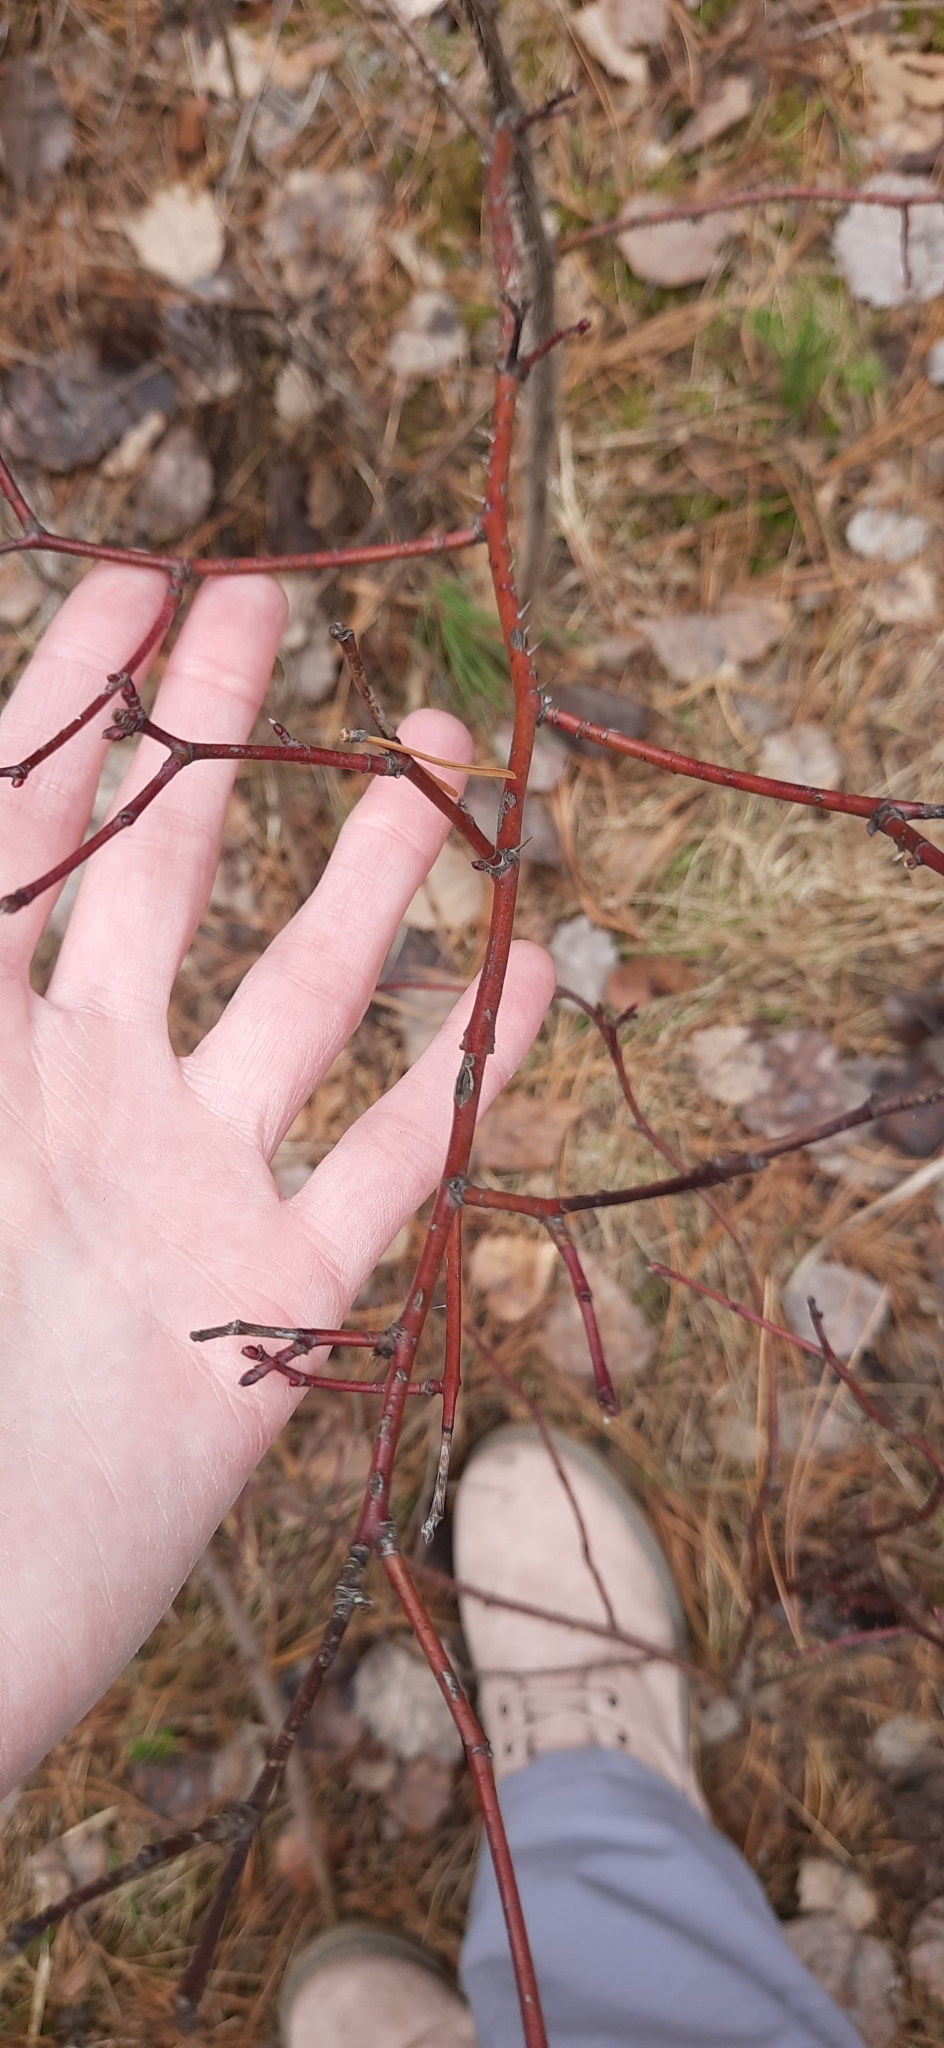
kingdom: Plantae
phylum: Tracheophyta
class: Magnoliopsida
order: Rosales
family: Rosaceae
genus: Rosa
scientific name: Rosa acicularis
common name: Prickly rose
